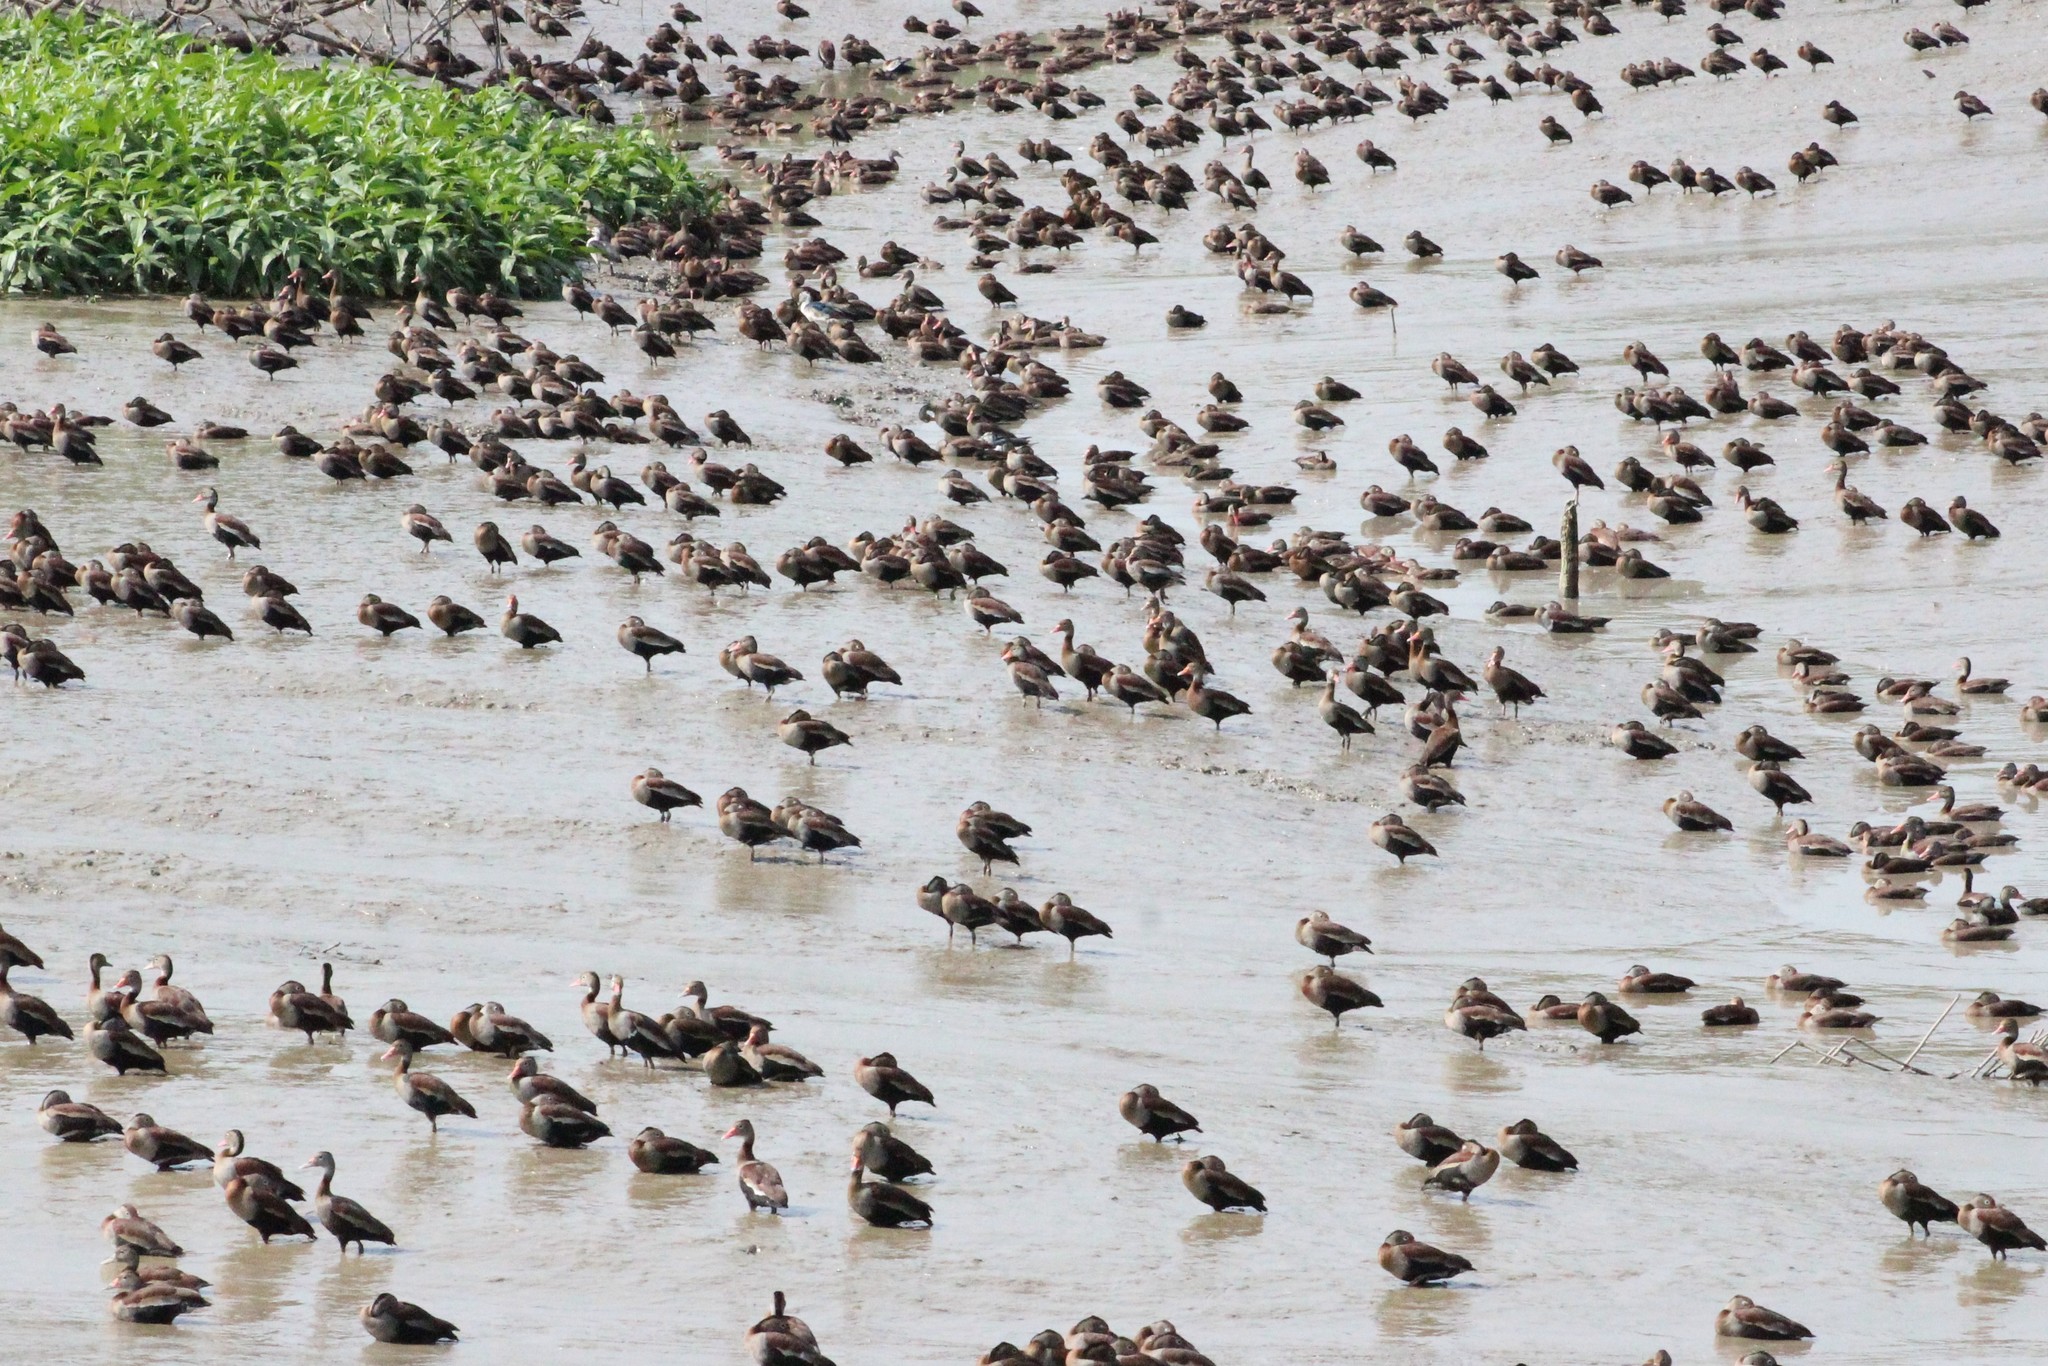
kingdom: Animalia
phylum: Chordata
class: Aves
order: Anseriformes
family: Anatidae
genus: Dendrocygna
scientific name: Dendrocygna autumnalis
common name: Black-bellied whistling duck
